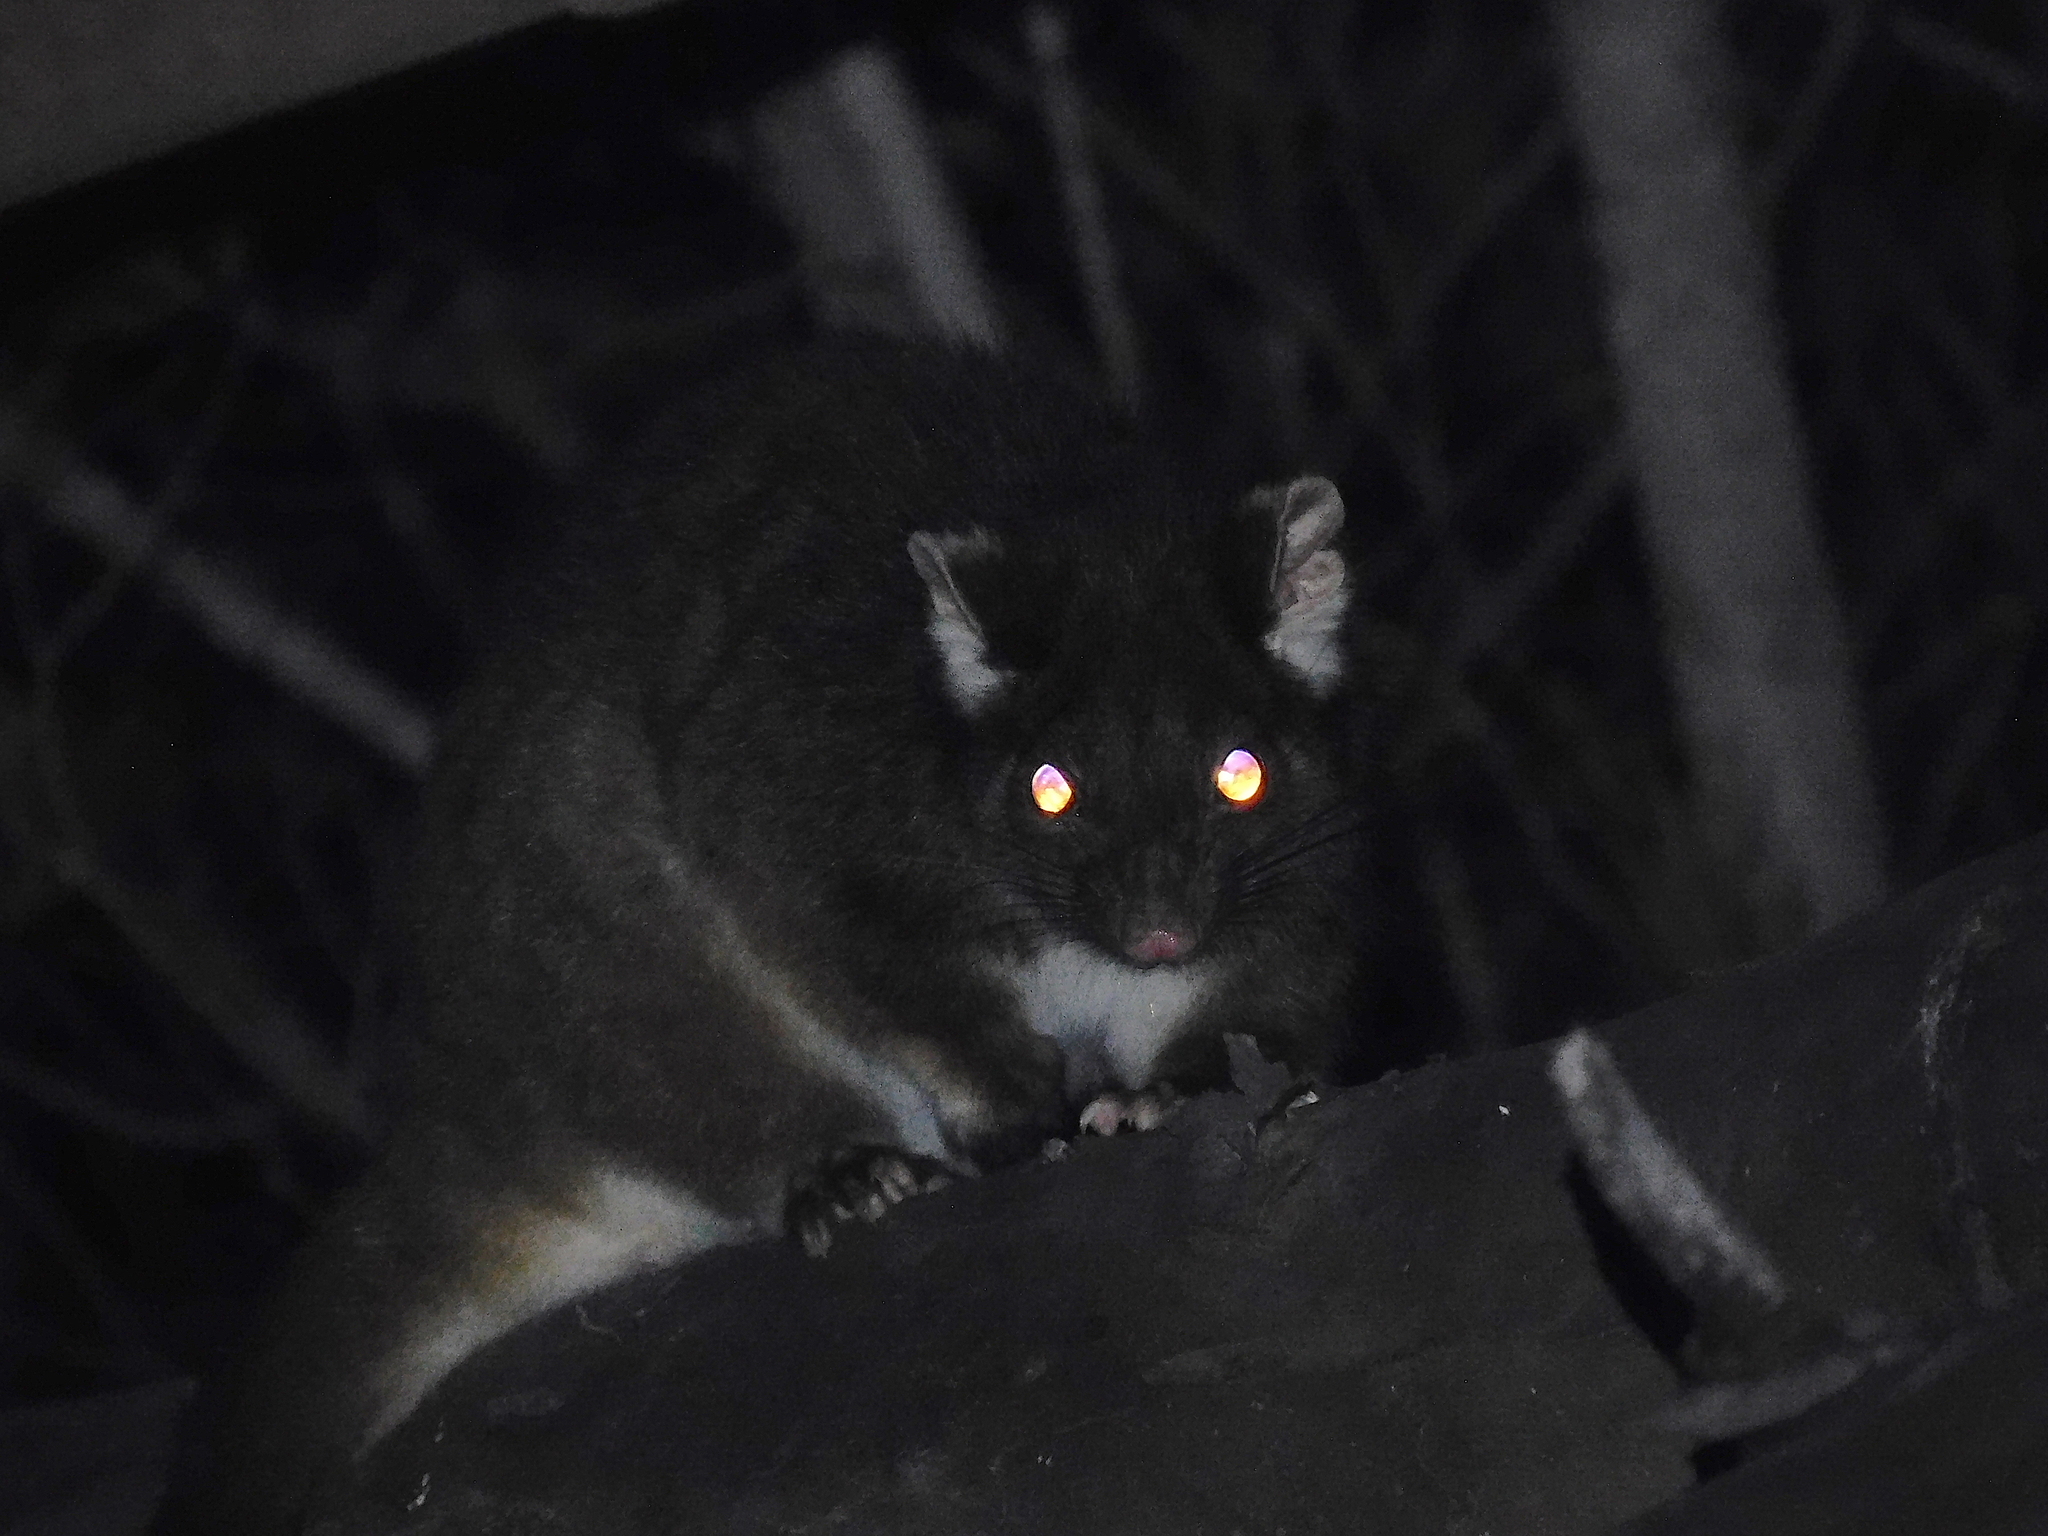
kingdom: Animalia
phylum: Chordata
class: Mammalia
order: Diprotodontia
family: Pseudocheiridae
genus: Pseudocheirus
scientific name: Pseudocheirus peregrinus
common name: Common ringtail possum
